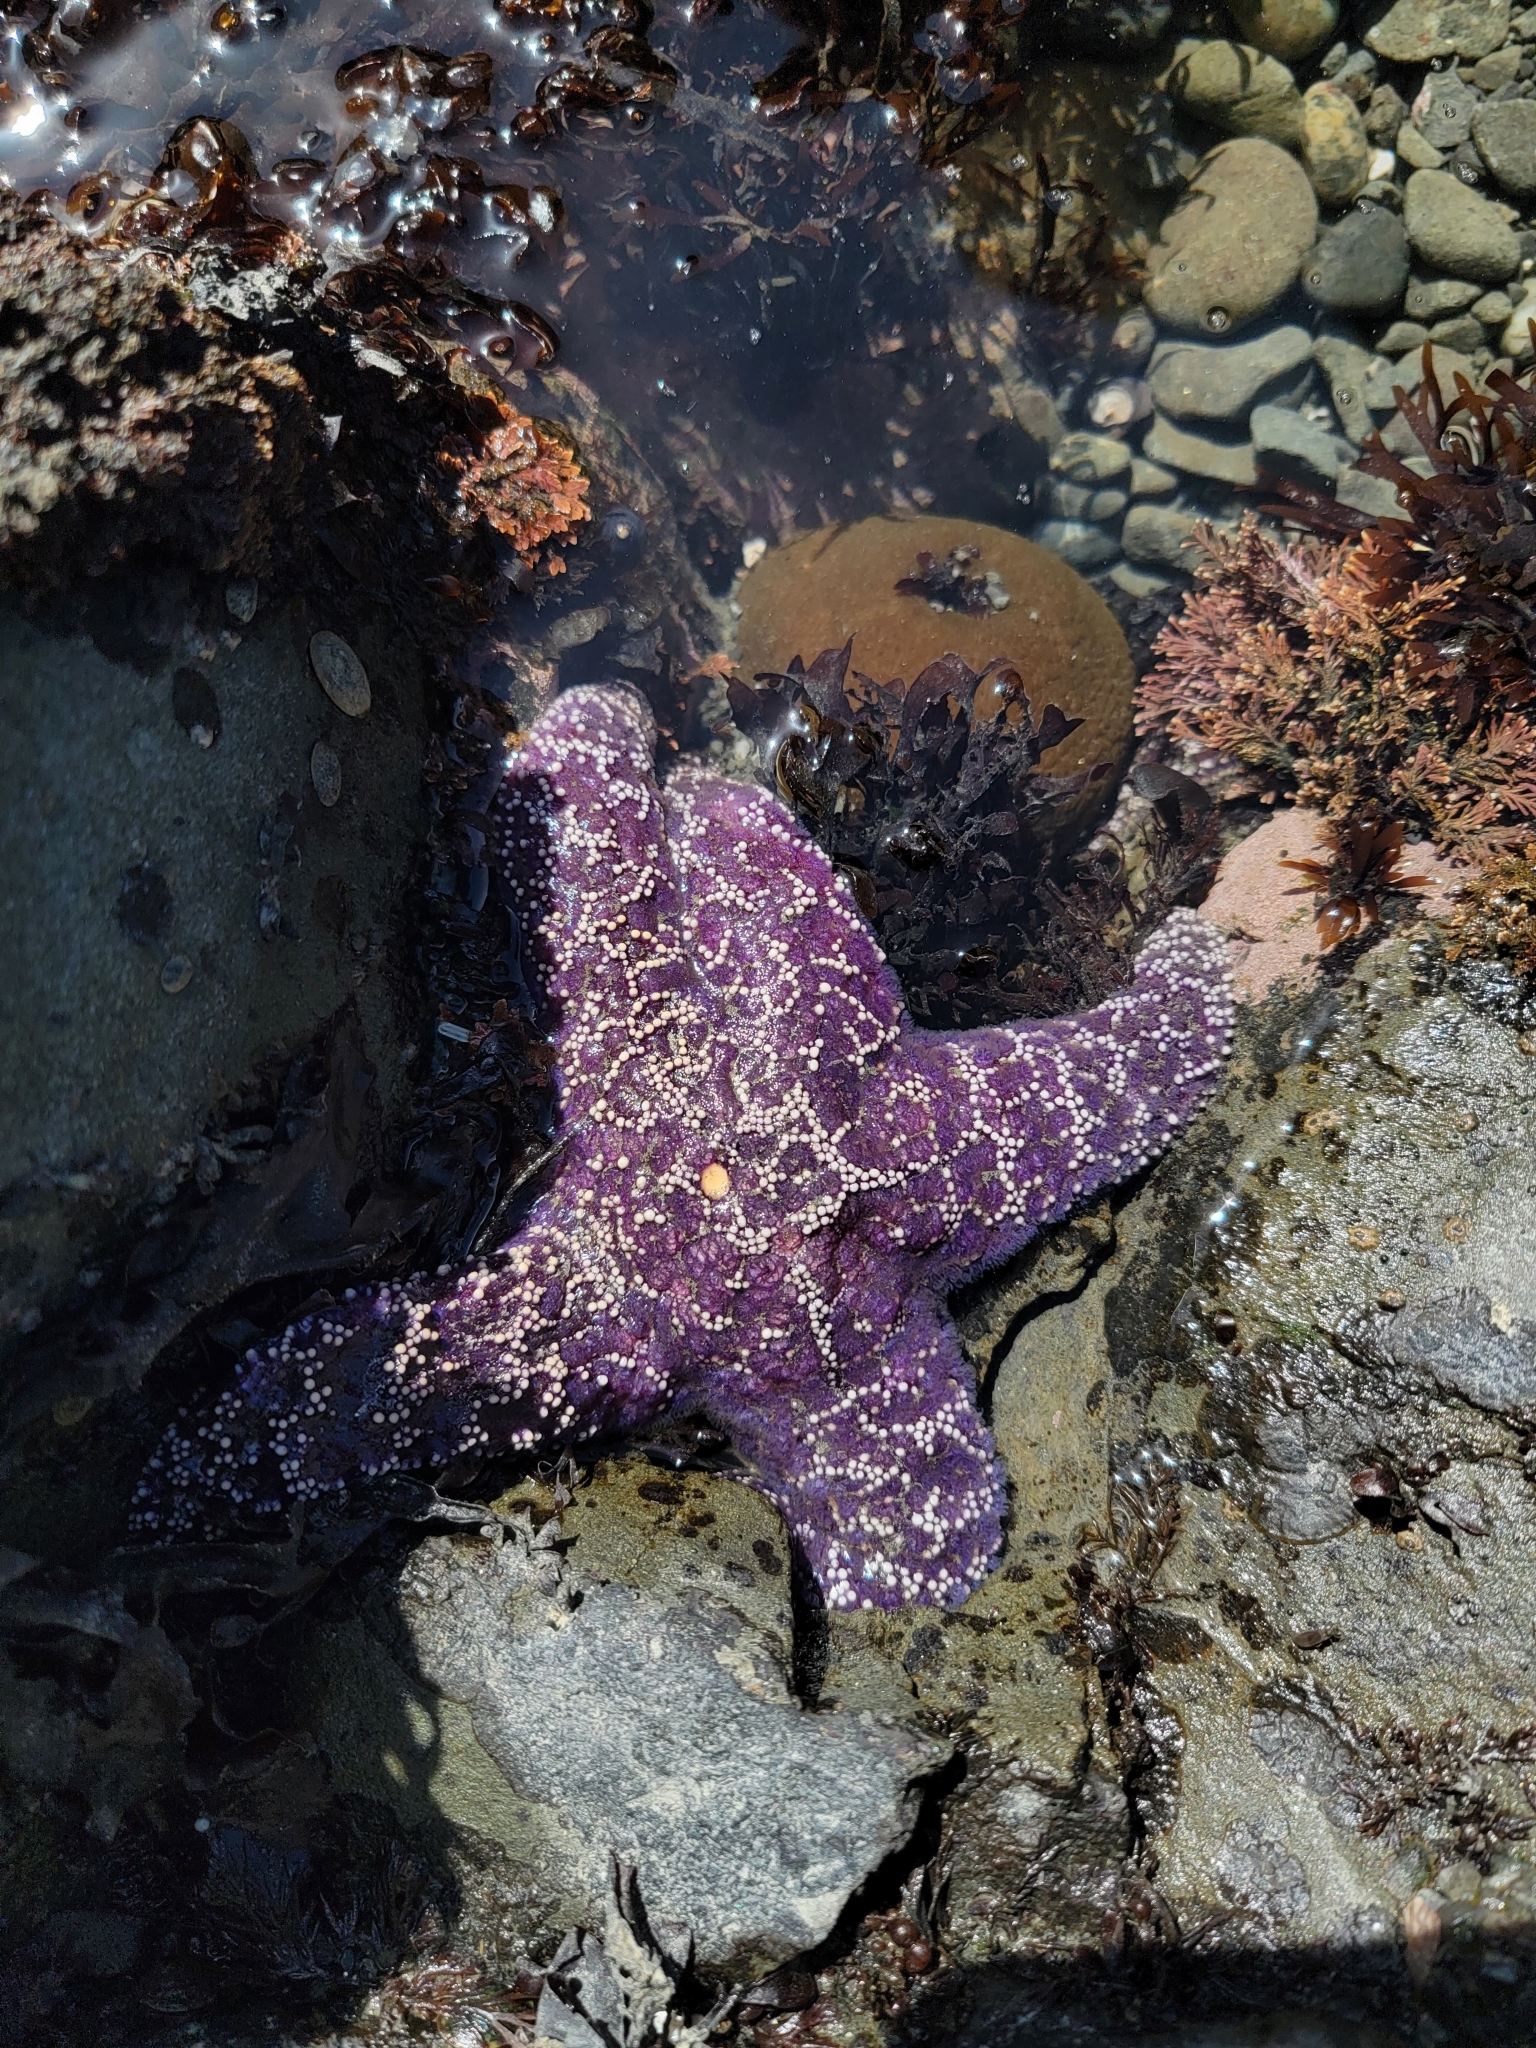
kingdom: Animalia
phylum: Echinodermata
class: Asteroidea
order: Forcipulatida
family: Asteriidae
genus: Pisaster
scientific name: Pisaster ochraceus
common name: Ochre stars
